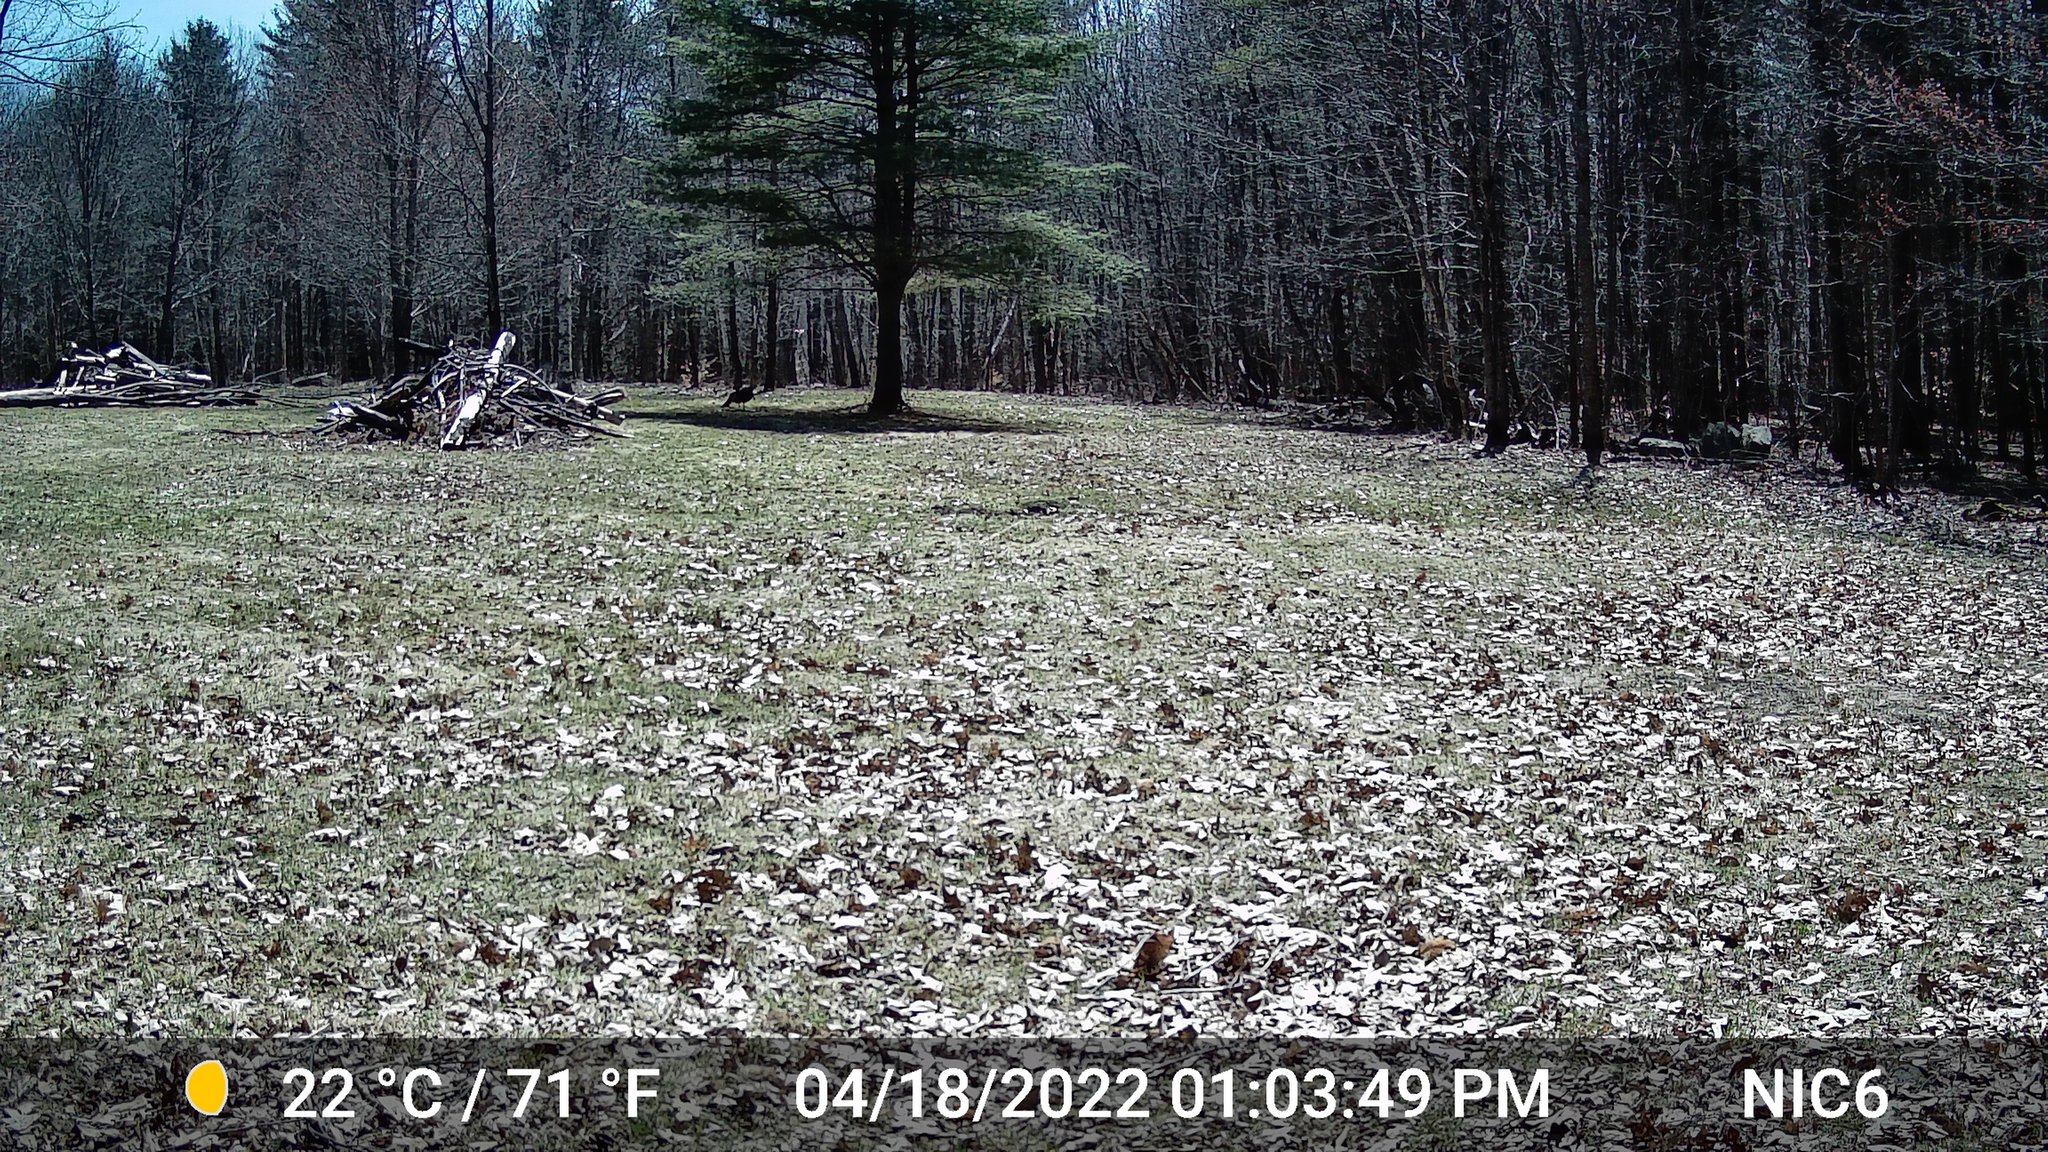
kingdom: Animalia
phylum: Chordata
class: Aves
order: Galliformes
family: Phasianidae
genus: Meleagris
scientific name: Meleagris gallopavo
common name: Wild turkey
